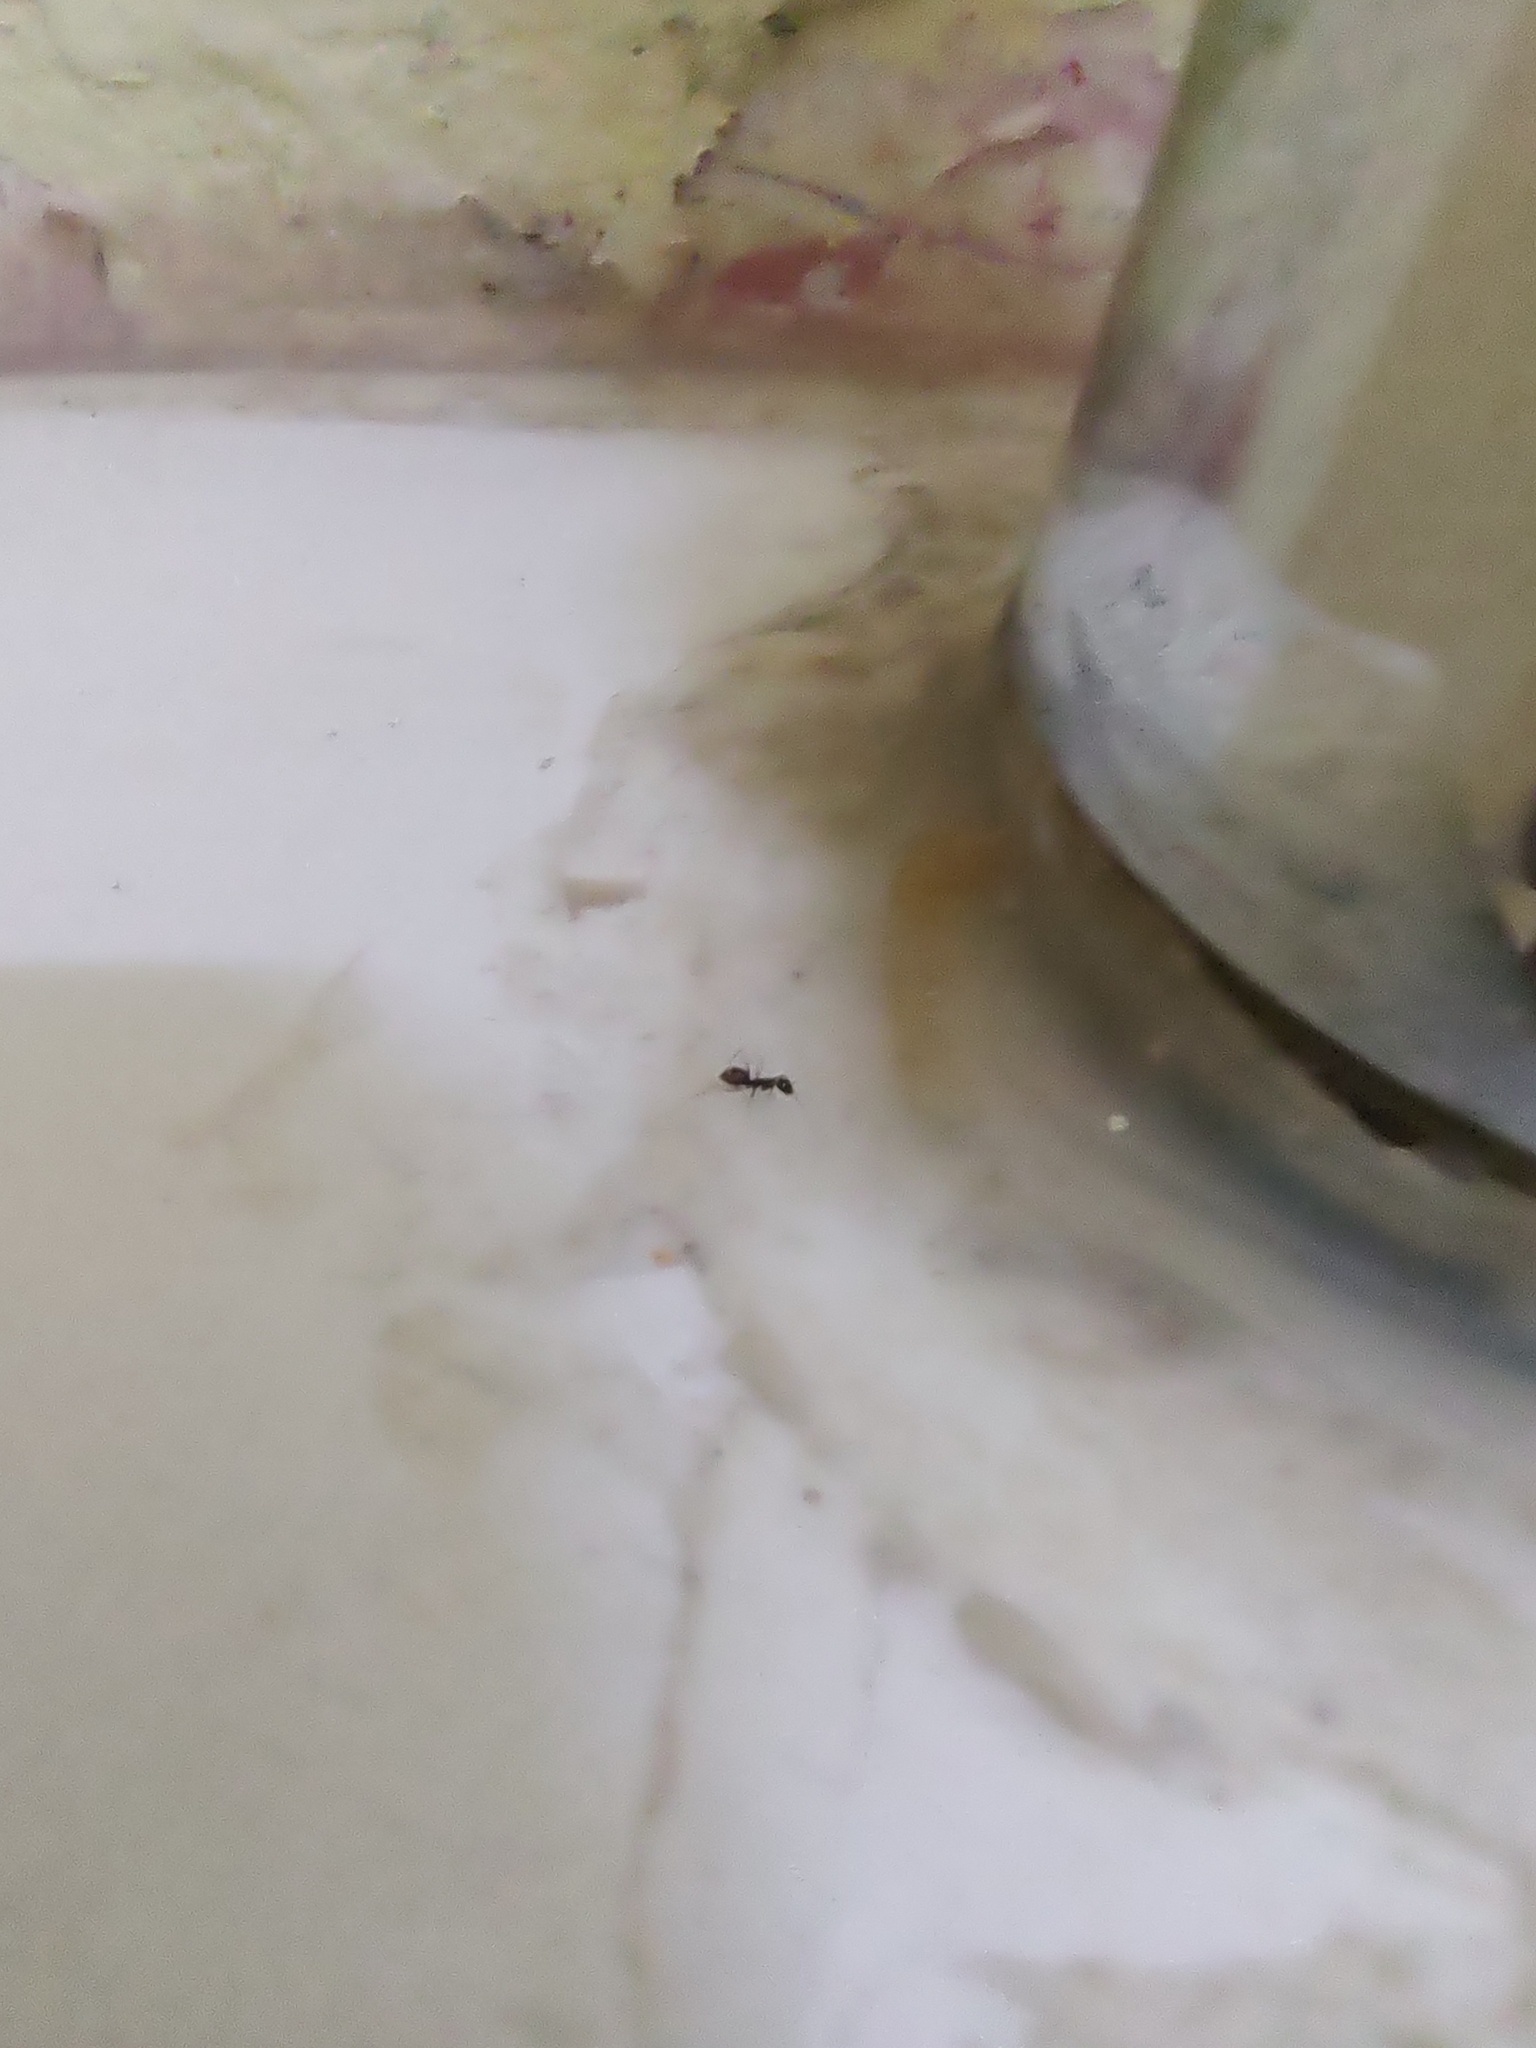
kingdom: Animalia
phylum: Arthropoda
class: Insecta
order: Hymenoptera
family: Formicidae
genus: Paratrechina
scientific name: Paratrechina longicornis
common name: Longhorned crazy ant
